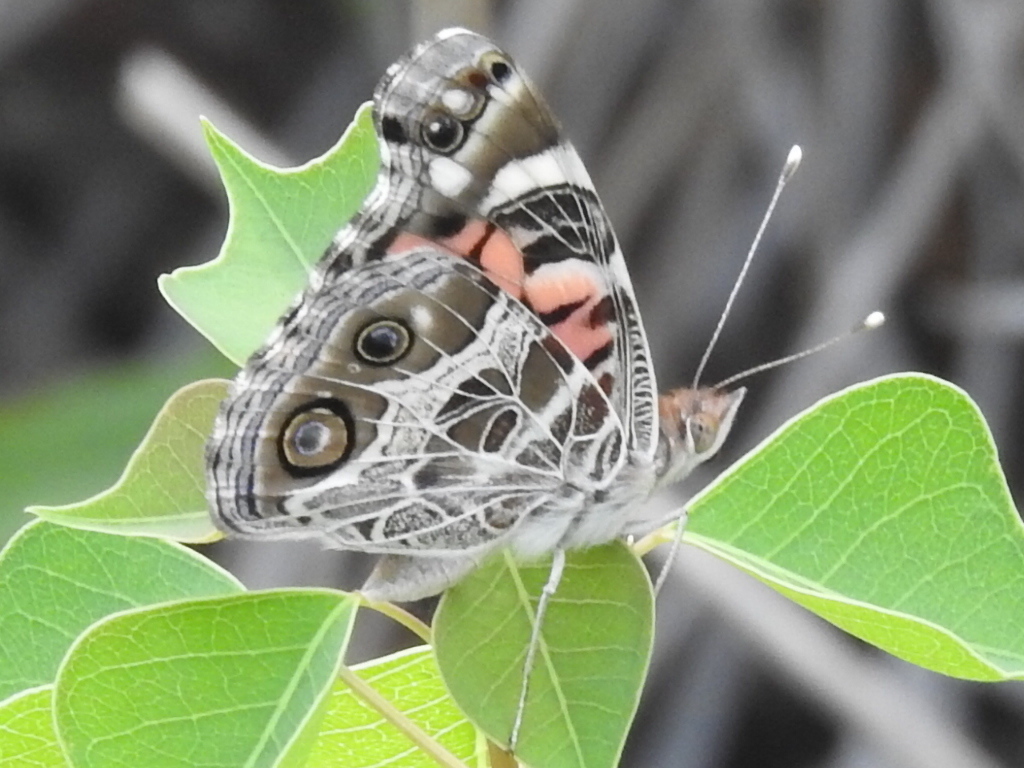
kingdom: Animalia
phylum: Arthropoda
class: Insecta
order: Lepidoptera
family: Nymphalidae
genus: Vanessa
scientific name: Vanessa virginiensis
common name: American lady
